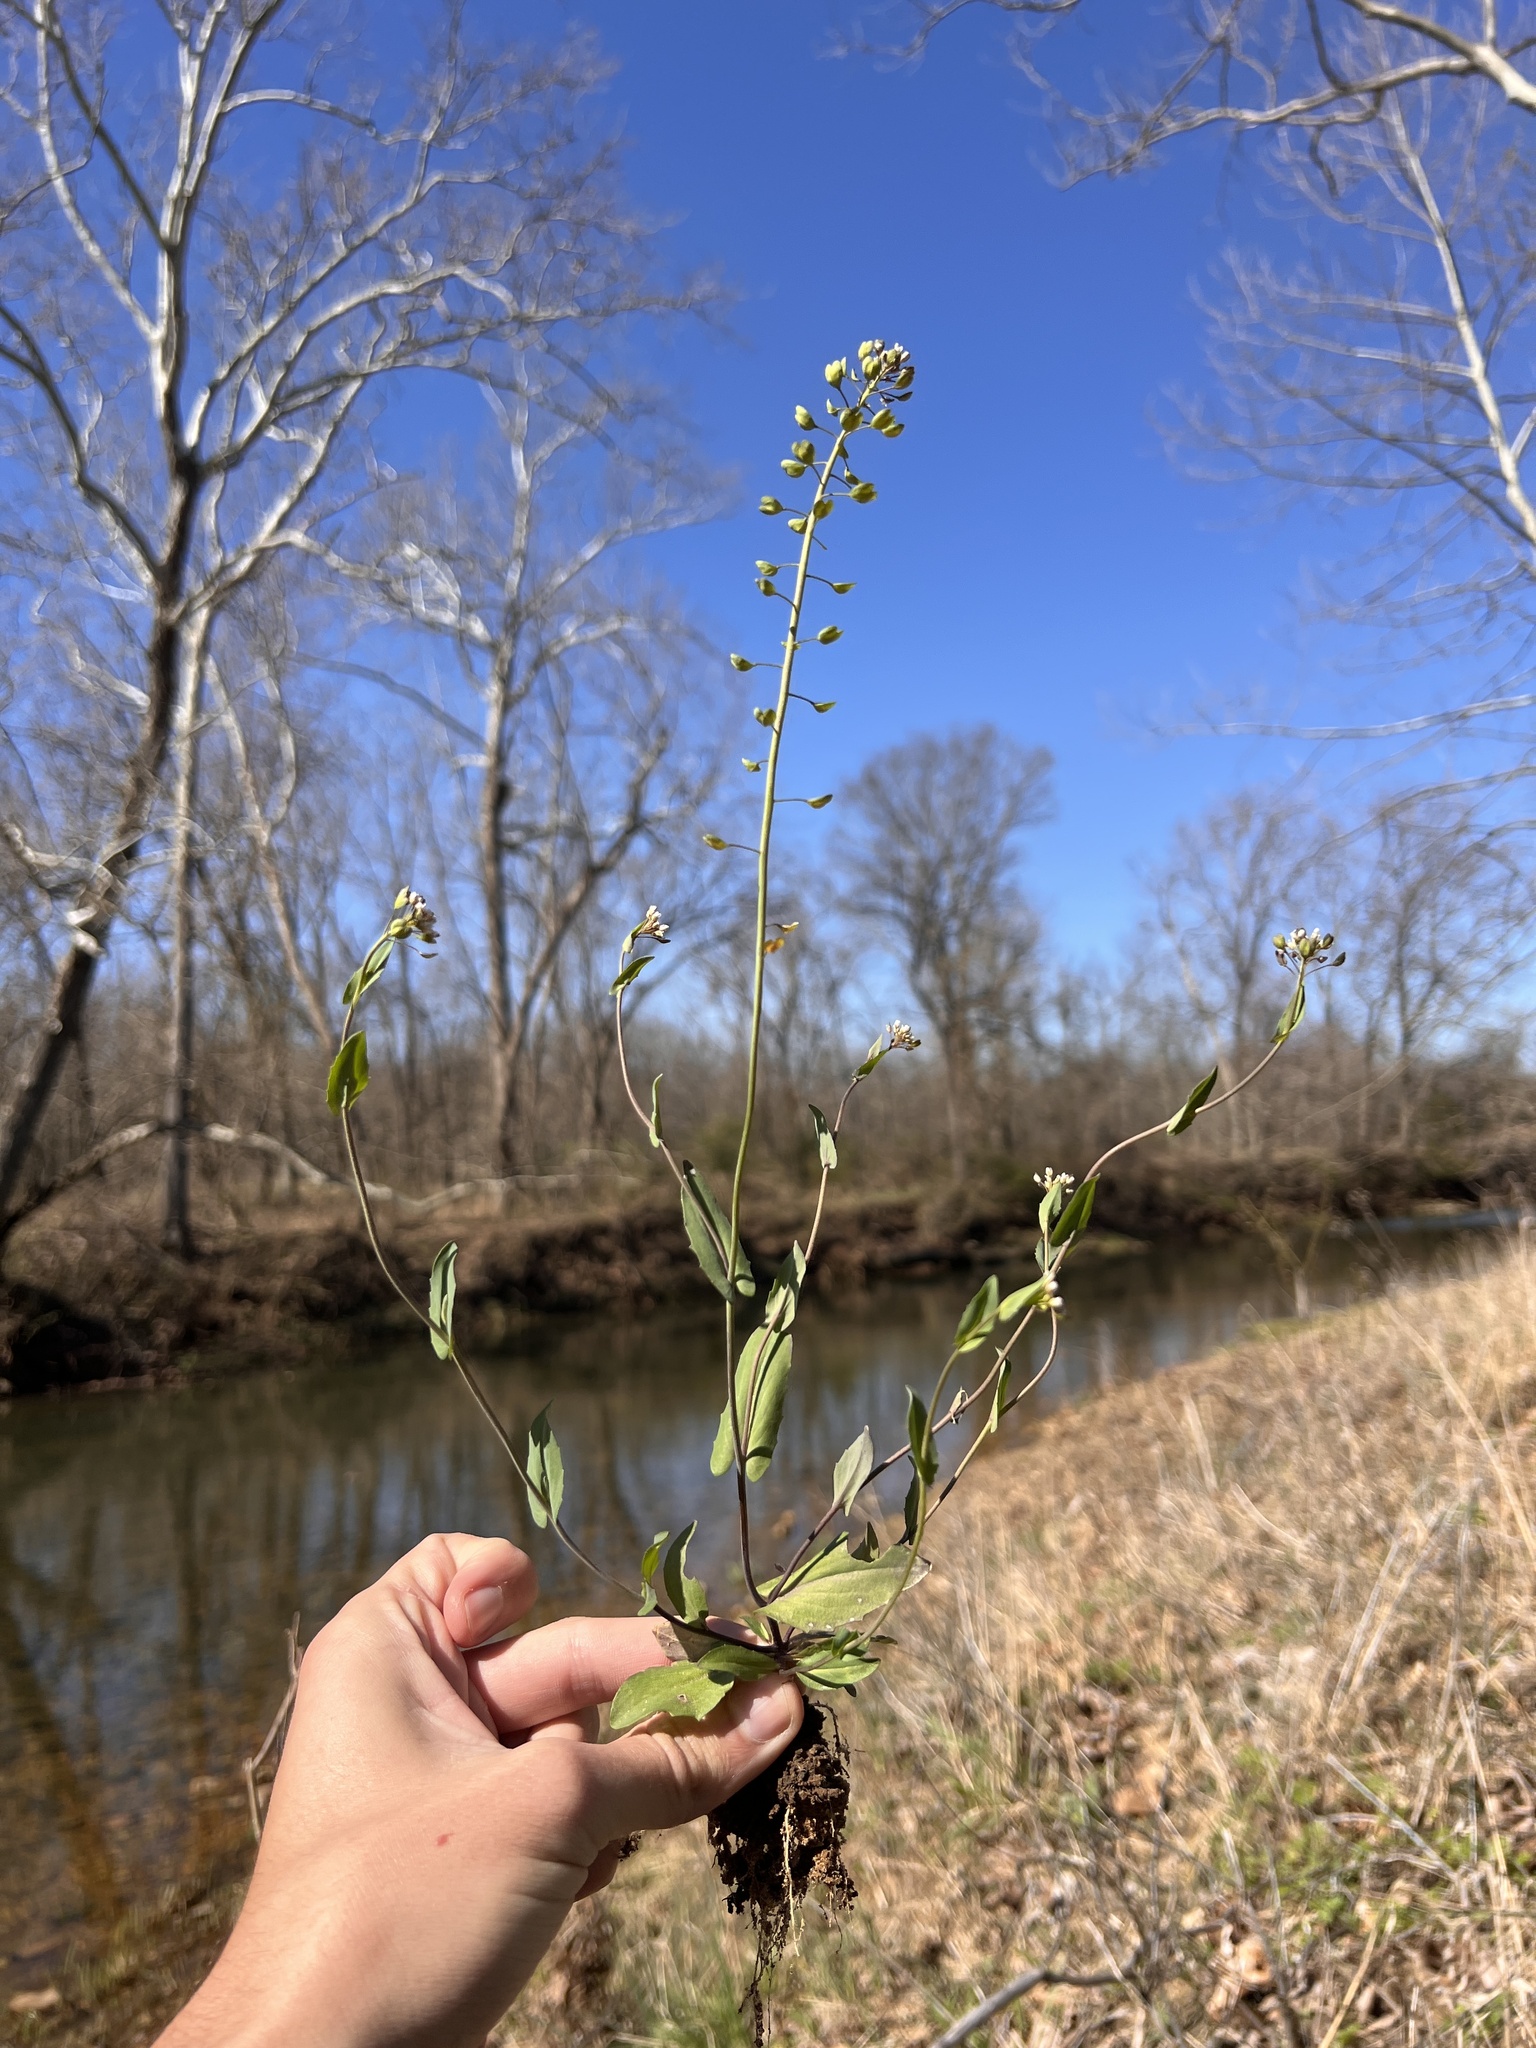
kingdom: Plantae
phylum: Tracheophyta
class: Magnoliopsida
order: Brassicales
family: Brassicaceae
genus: Noccaea
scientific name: Noccaea perfoliata
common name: Perfoliate pennycress
